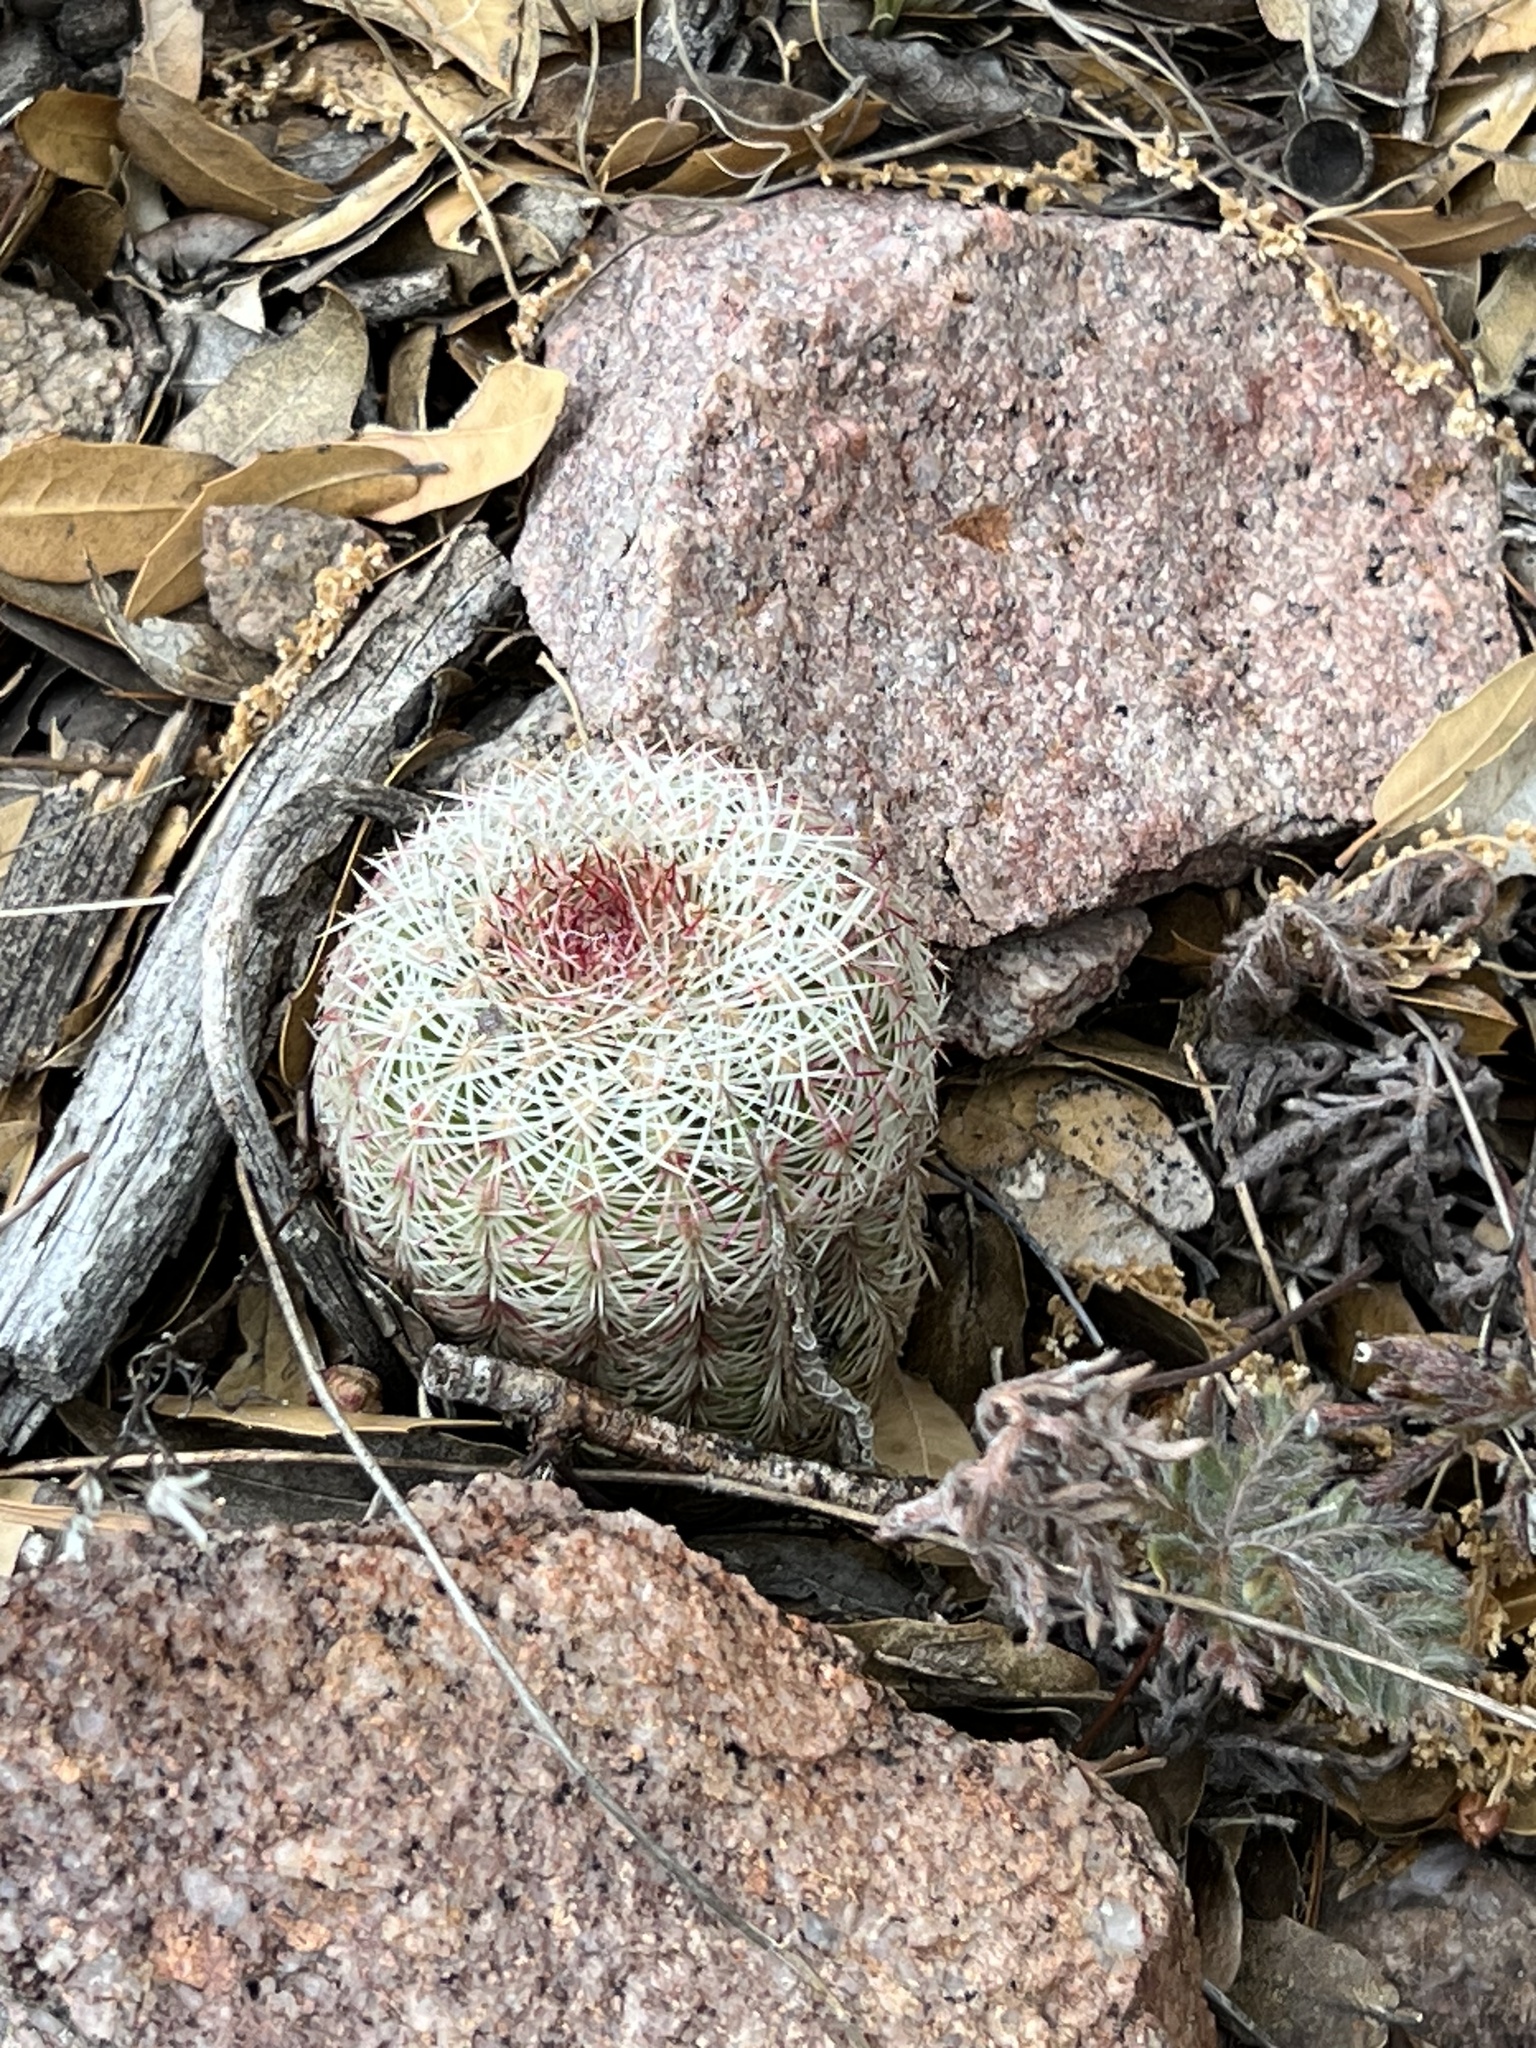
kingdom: Plantae
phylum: Tracheophyta
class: Magnoliopsida
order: Caryophyllales
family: Cactaceae
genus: Echinocereus
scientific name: Echinocereus rigidissimus
